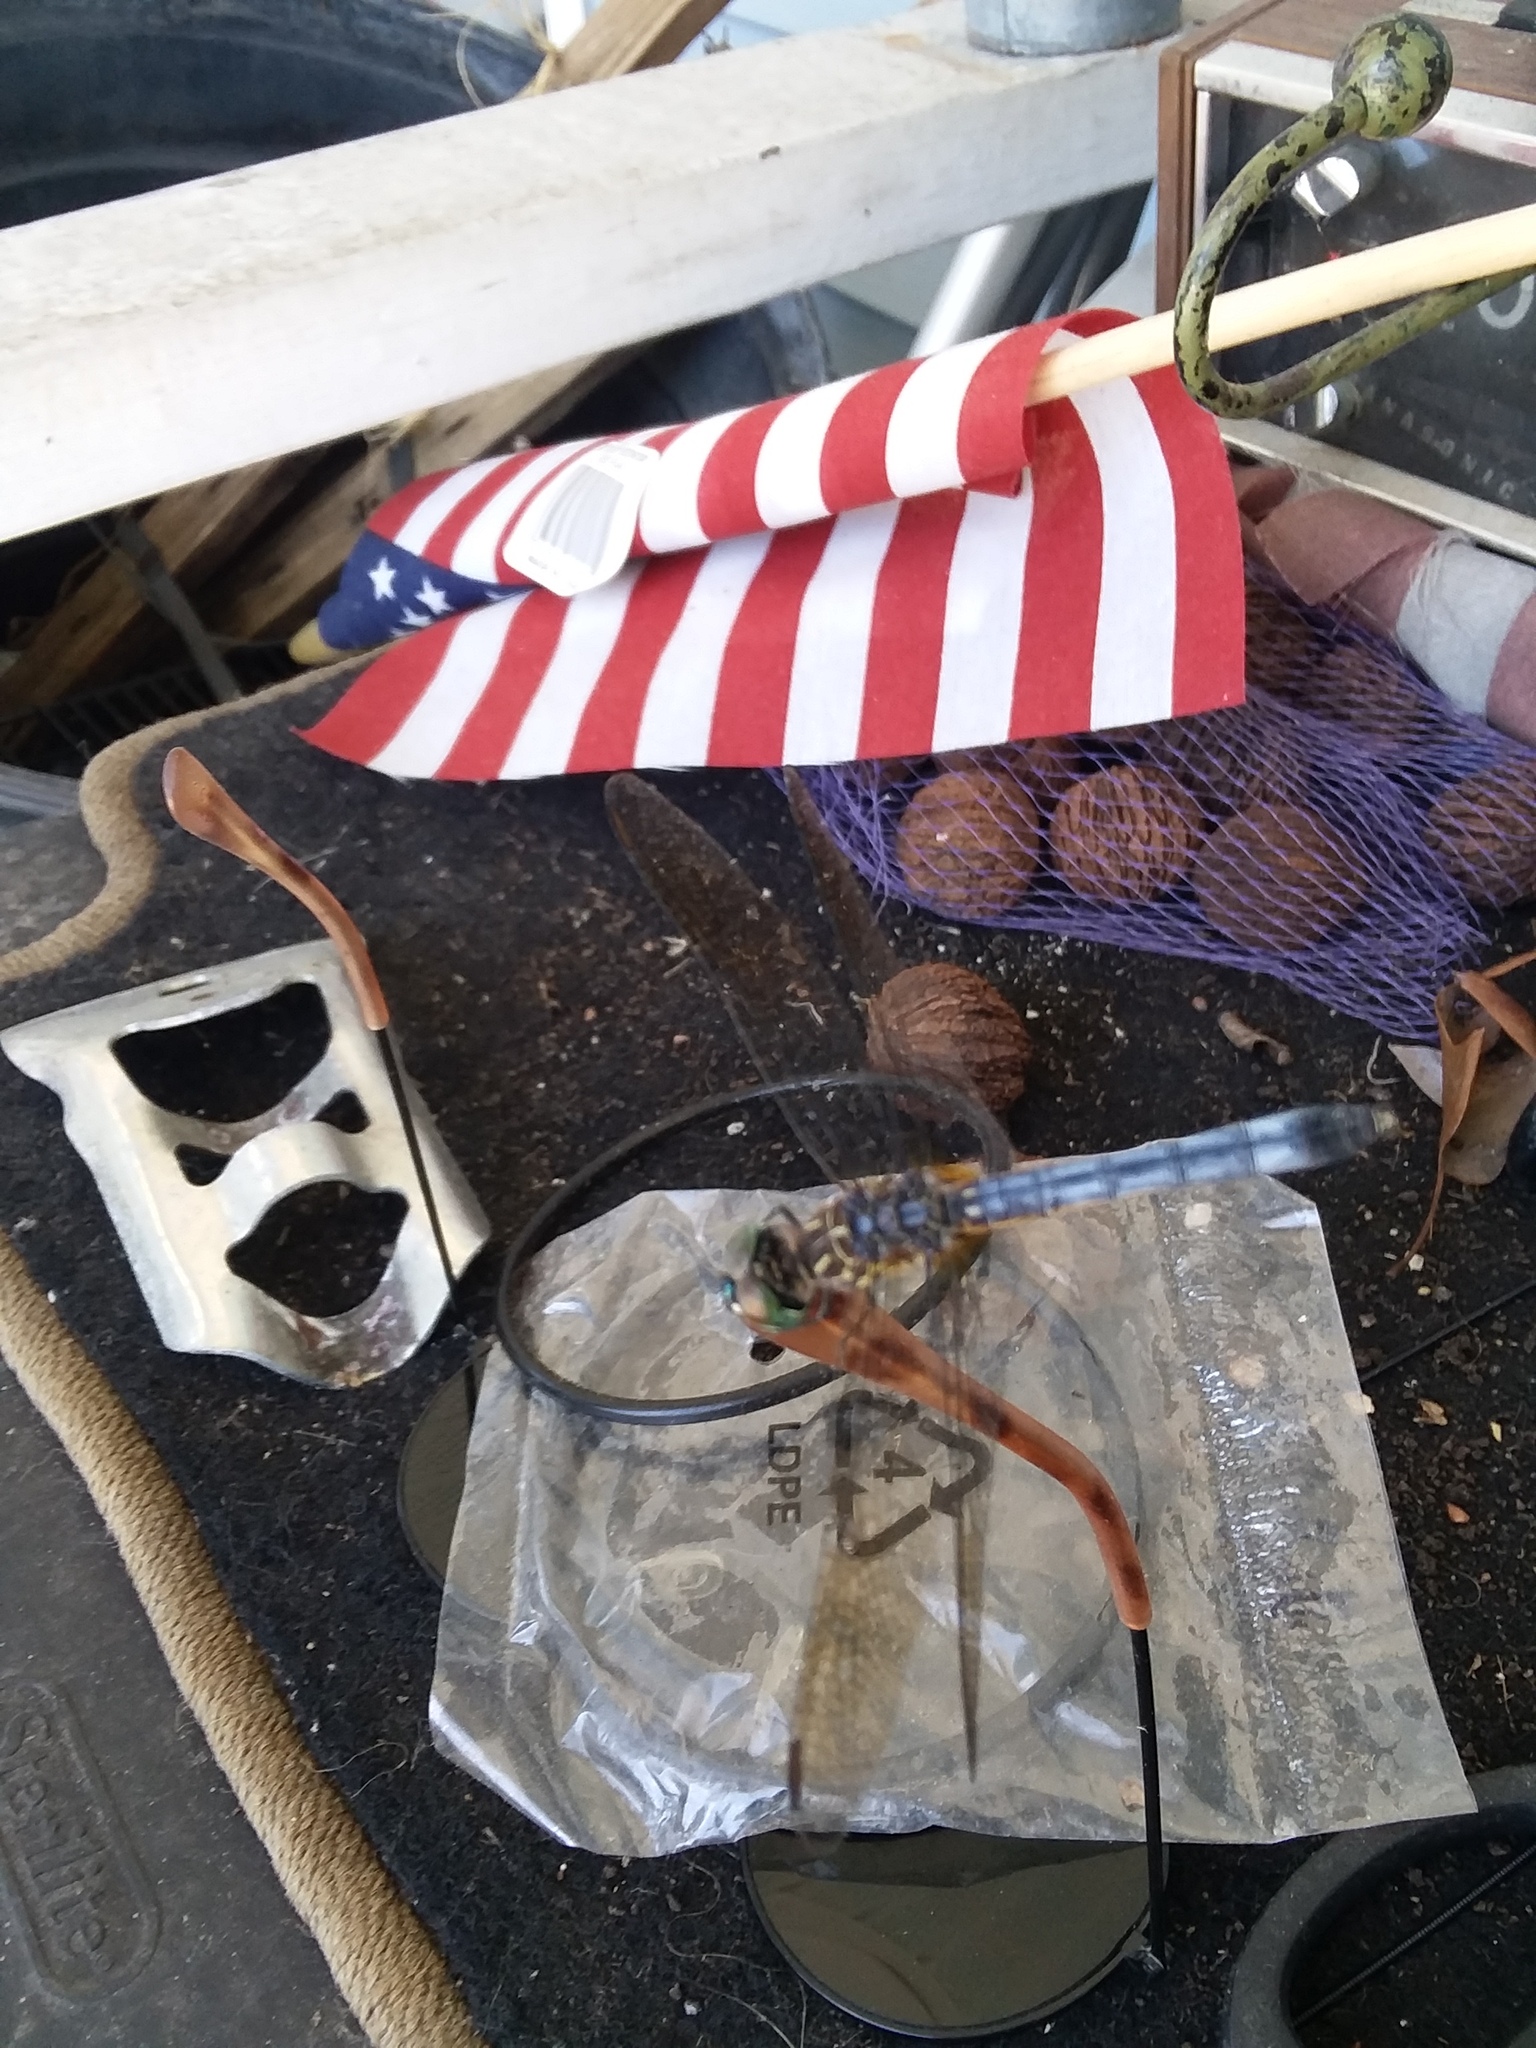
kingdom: Animalia
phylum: Arthropoda
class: Insecta
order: Odonata
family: Libellulidae
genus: Pachydiplax
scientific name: Pachydiplax longipennis
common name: Blue dasher
